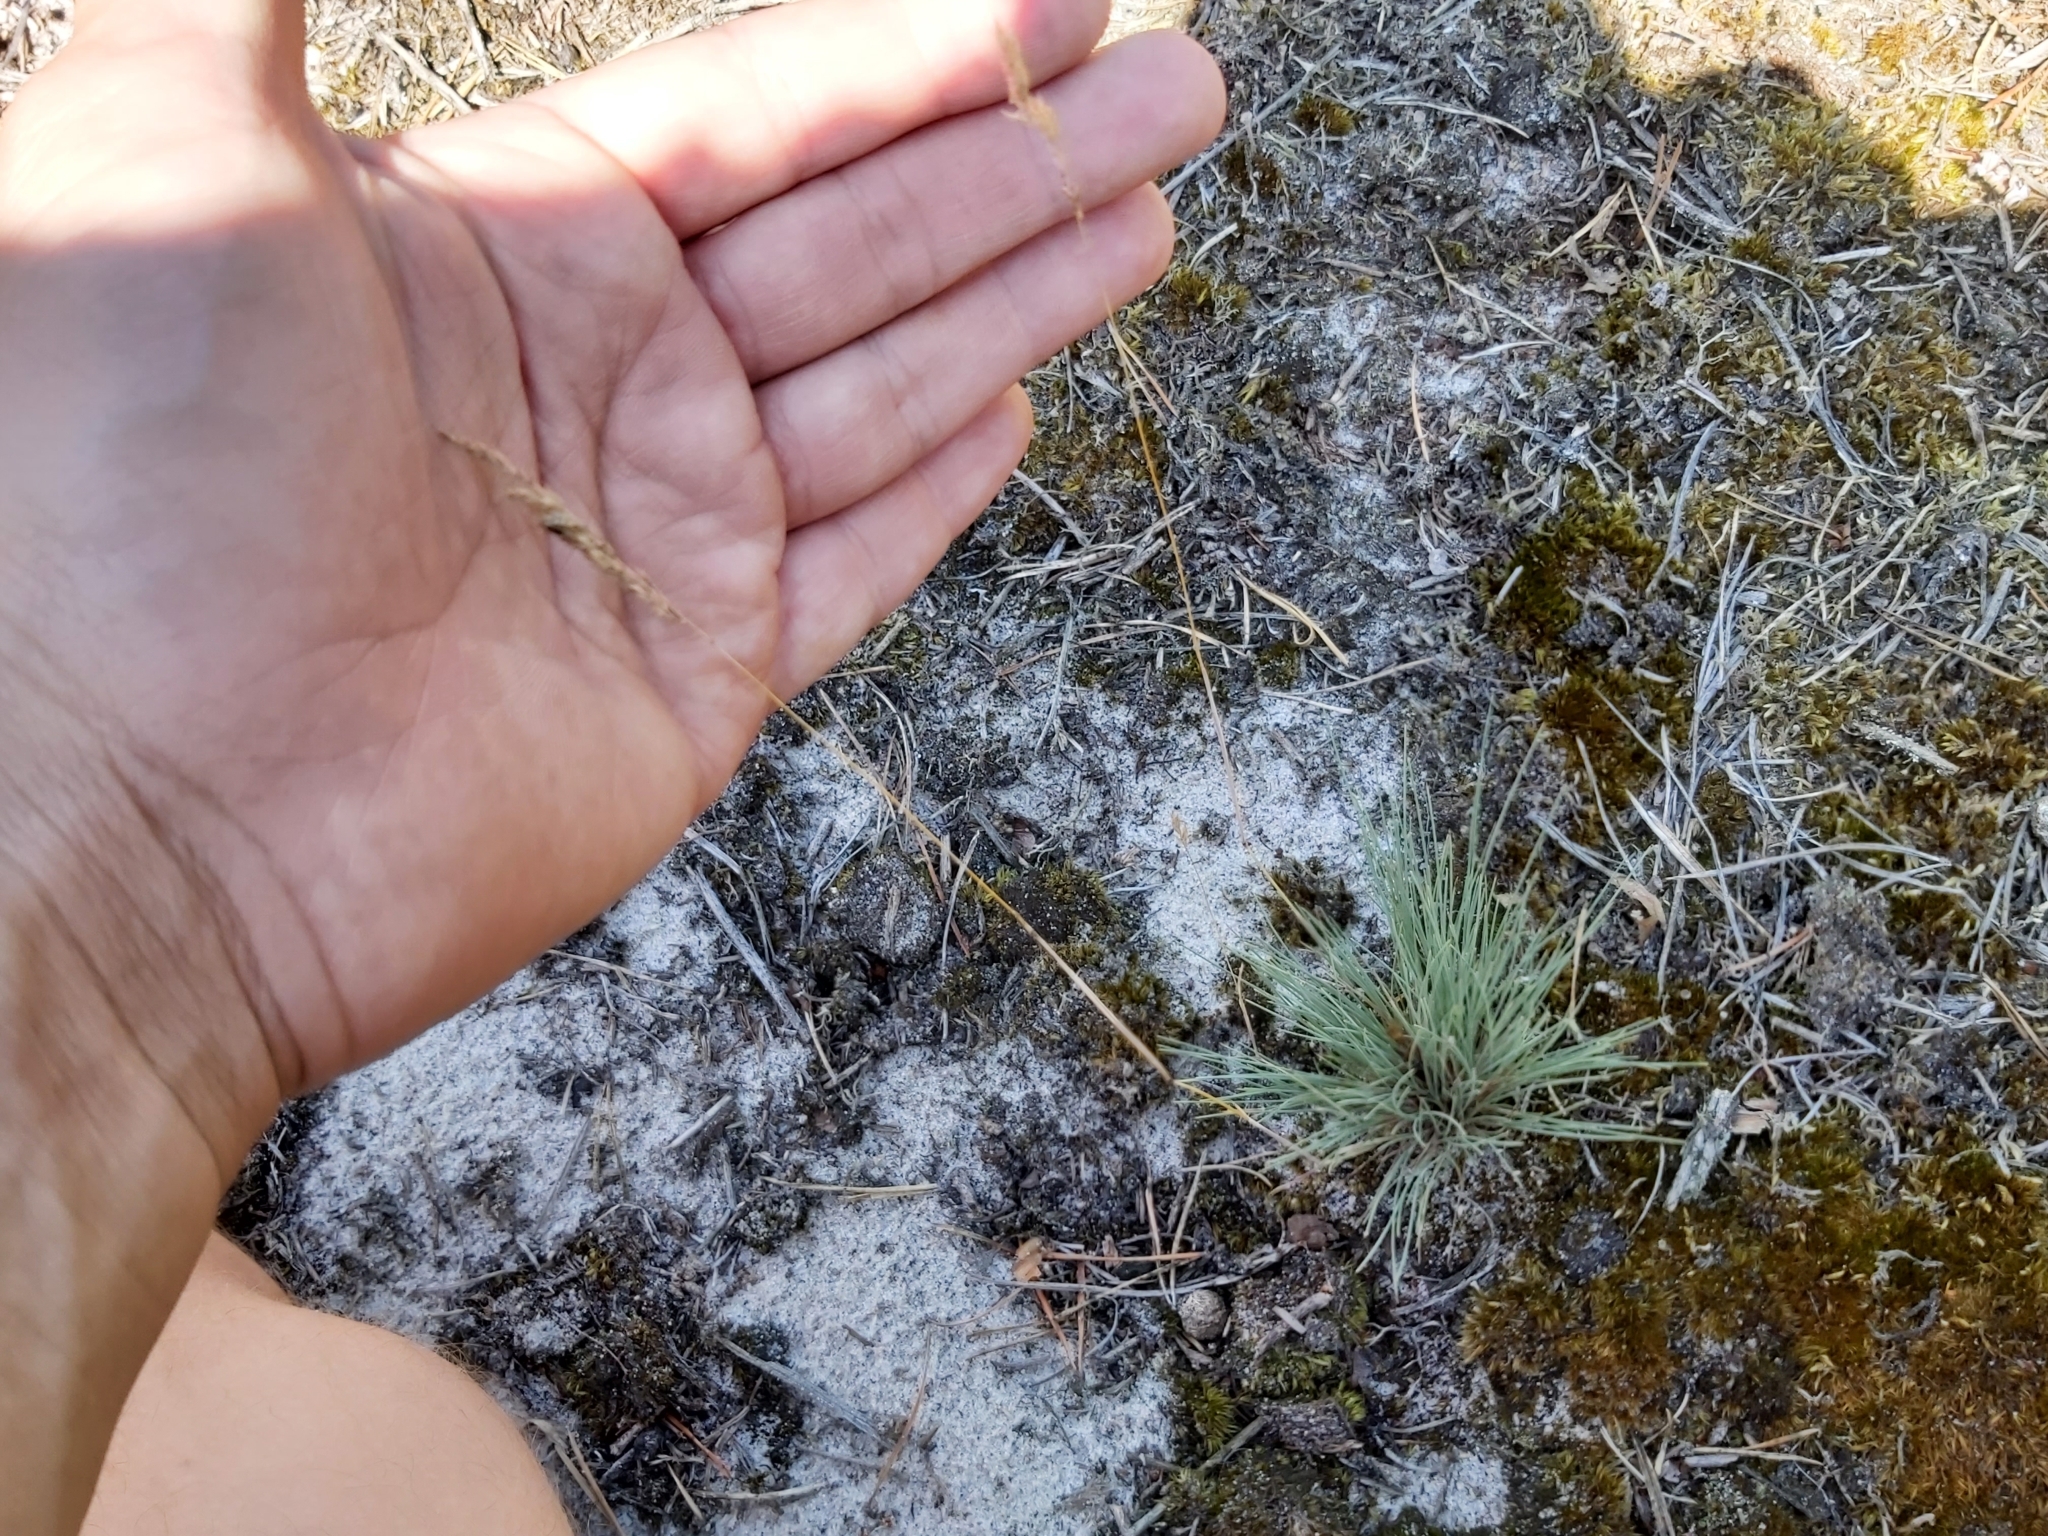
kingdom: Plantae
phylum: Tracheophyta
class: Liliopsida
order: Poales
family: Poaceae
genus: Corynephorus
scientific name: Corynephorus canescens
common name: Grey hair-grass
